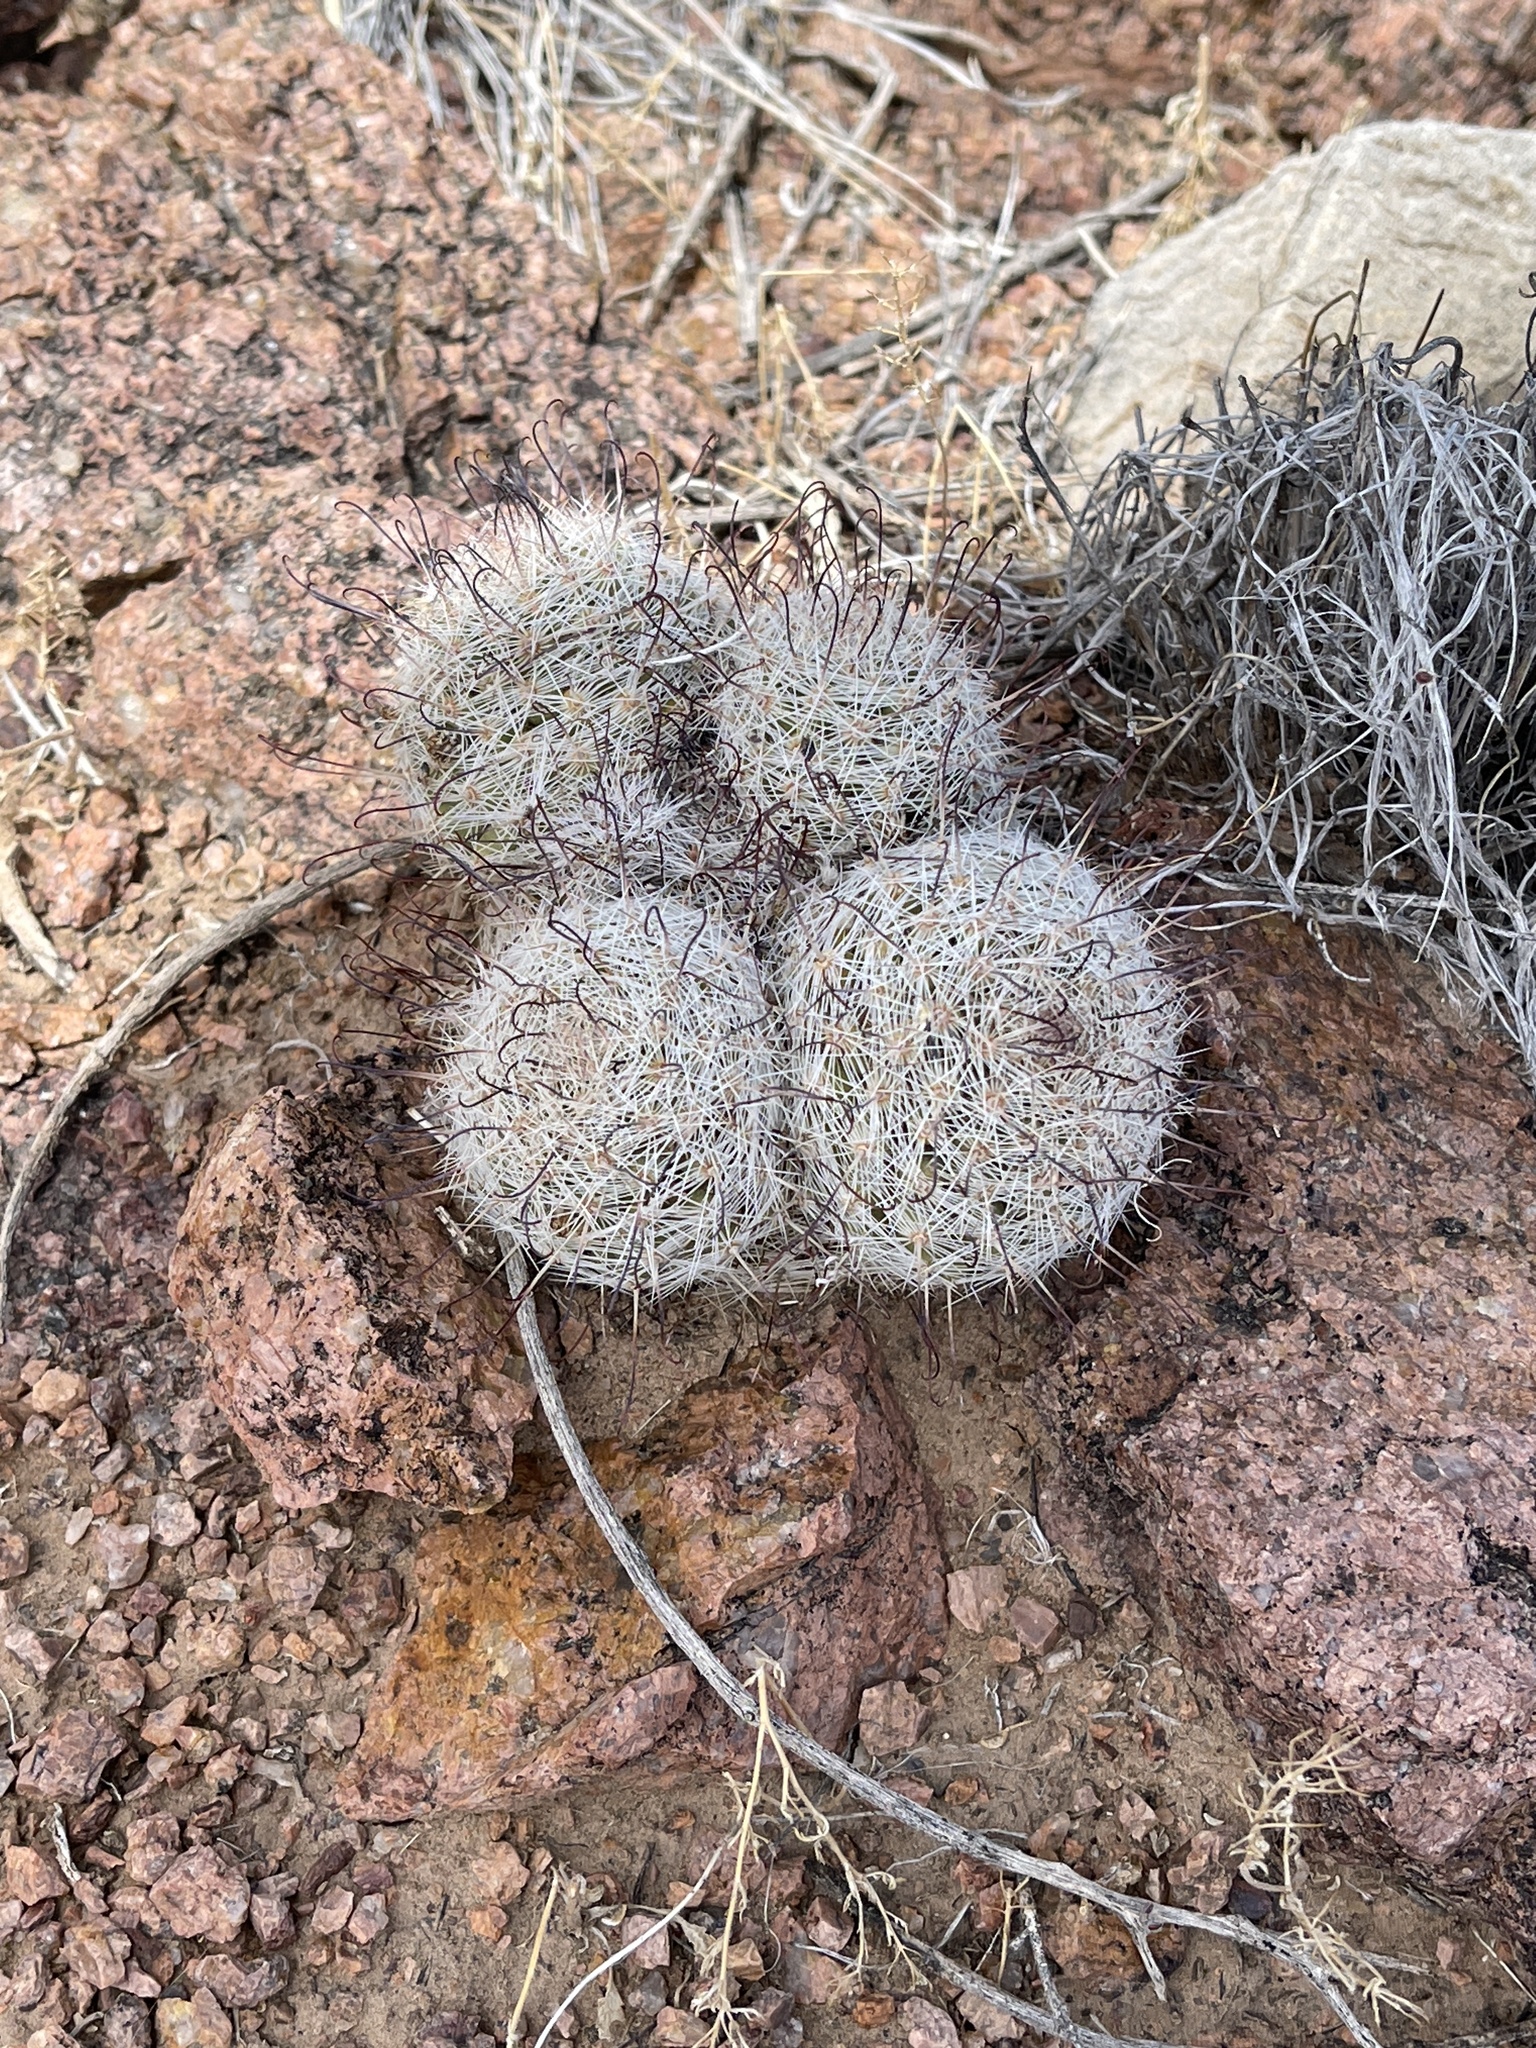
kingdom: Plantae
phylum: Tracheophyta
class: Magnoliopsida
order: Caryophyllales
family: Cactaceae
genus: Cochemiea
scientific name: Cochemiea grahamii
